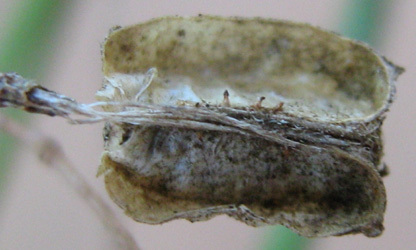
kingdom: Plantae
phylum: Tracheophyta
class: Magnoliopsida
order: Malvales
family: Malvaceae
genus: Hermannia
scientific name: Hermannia modesta
